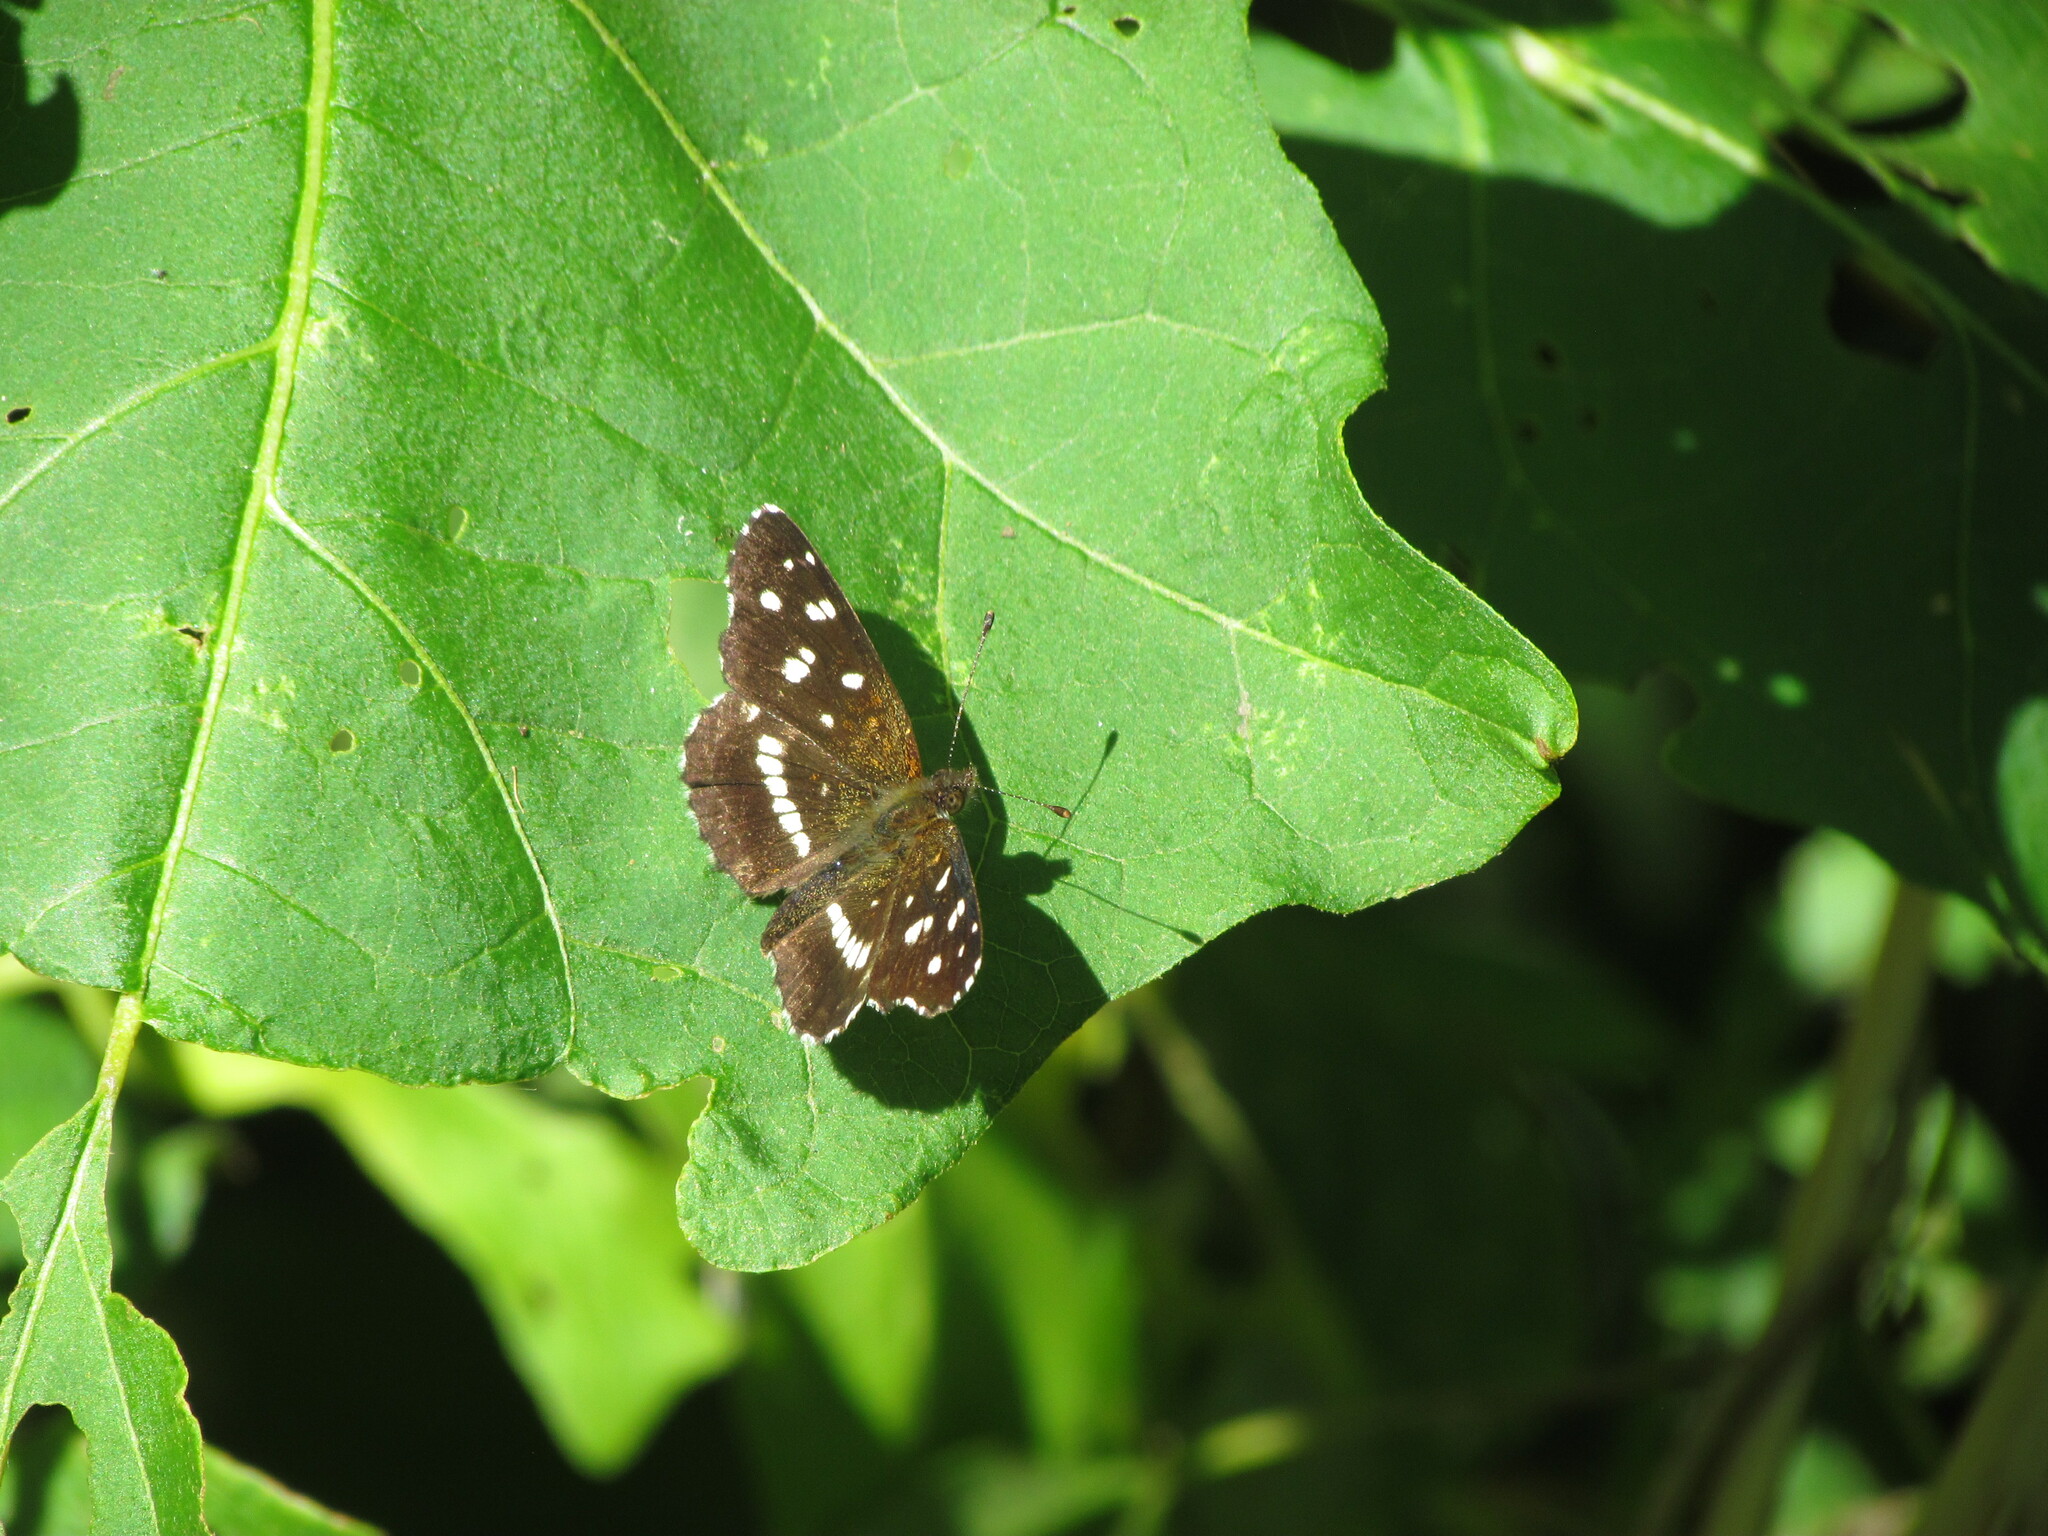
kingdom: Animalia
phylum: Arthropoda
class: Insecta
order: Lepidoptera
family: Nymphalidae
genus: Ortilia
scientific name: Ortilia ithra
